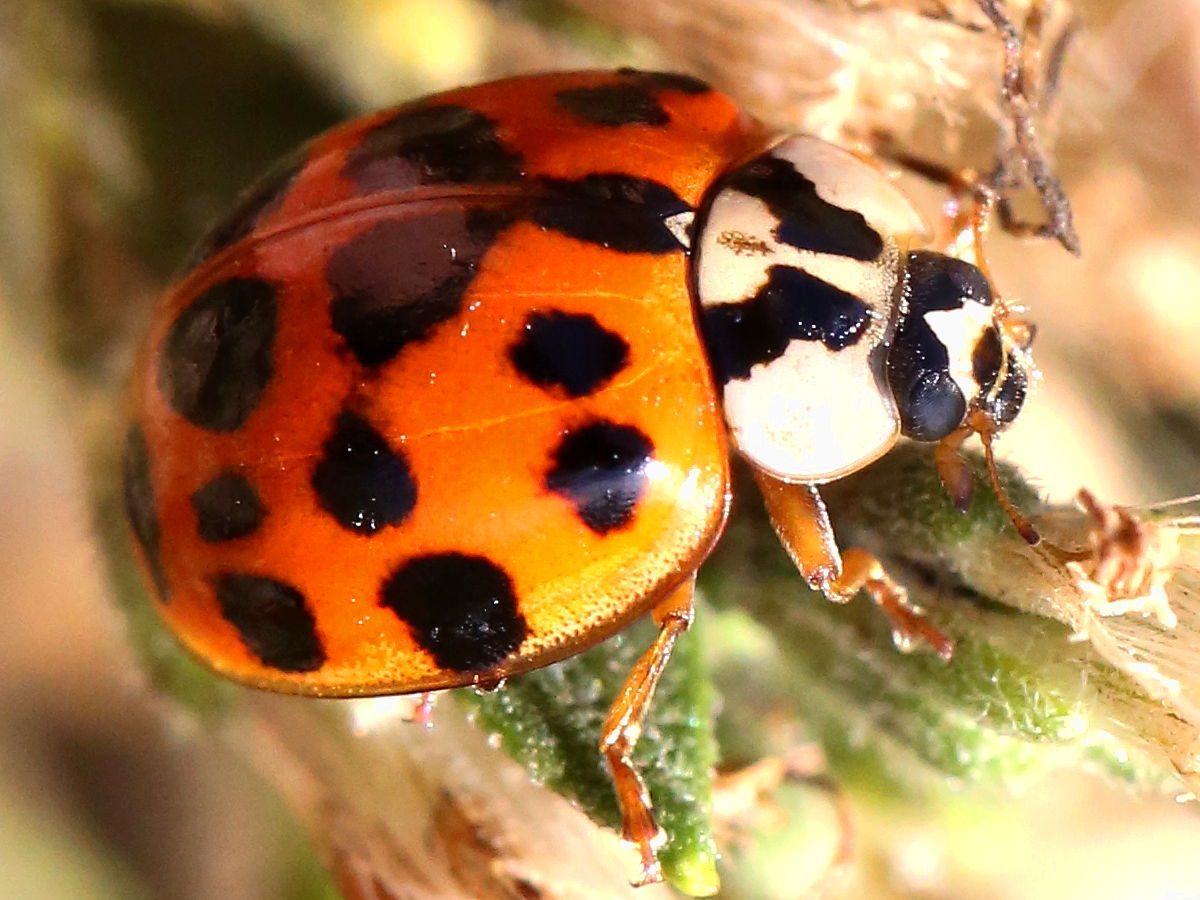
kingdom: Animalia
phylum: Arthropoda
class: Insecta
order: Coleoptera
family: Coccinellidae
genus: Harmonia
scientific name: Harmonia axyridis
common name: Harlequin ladybird
